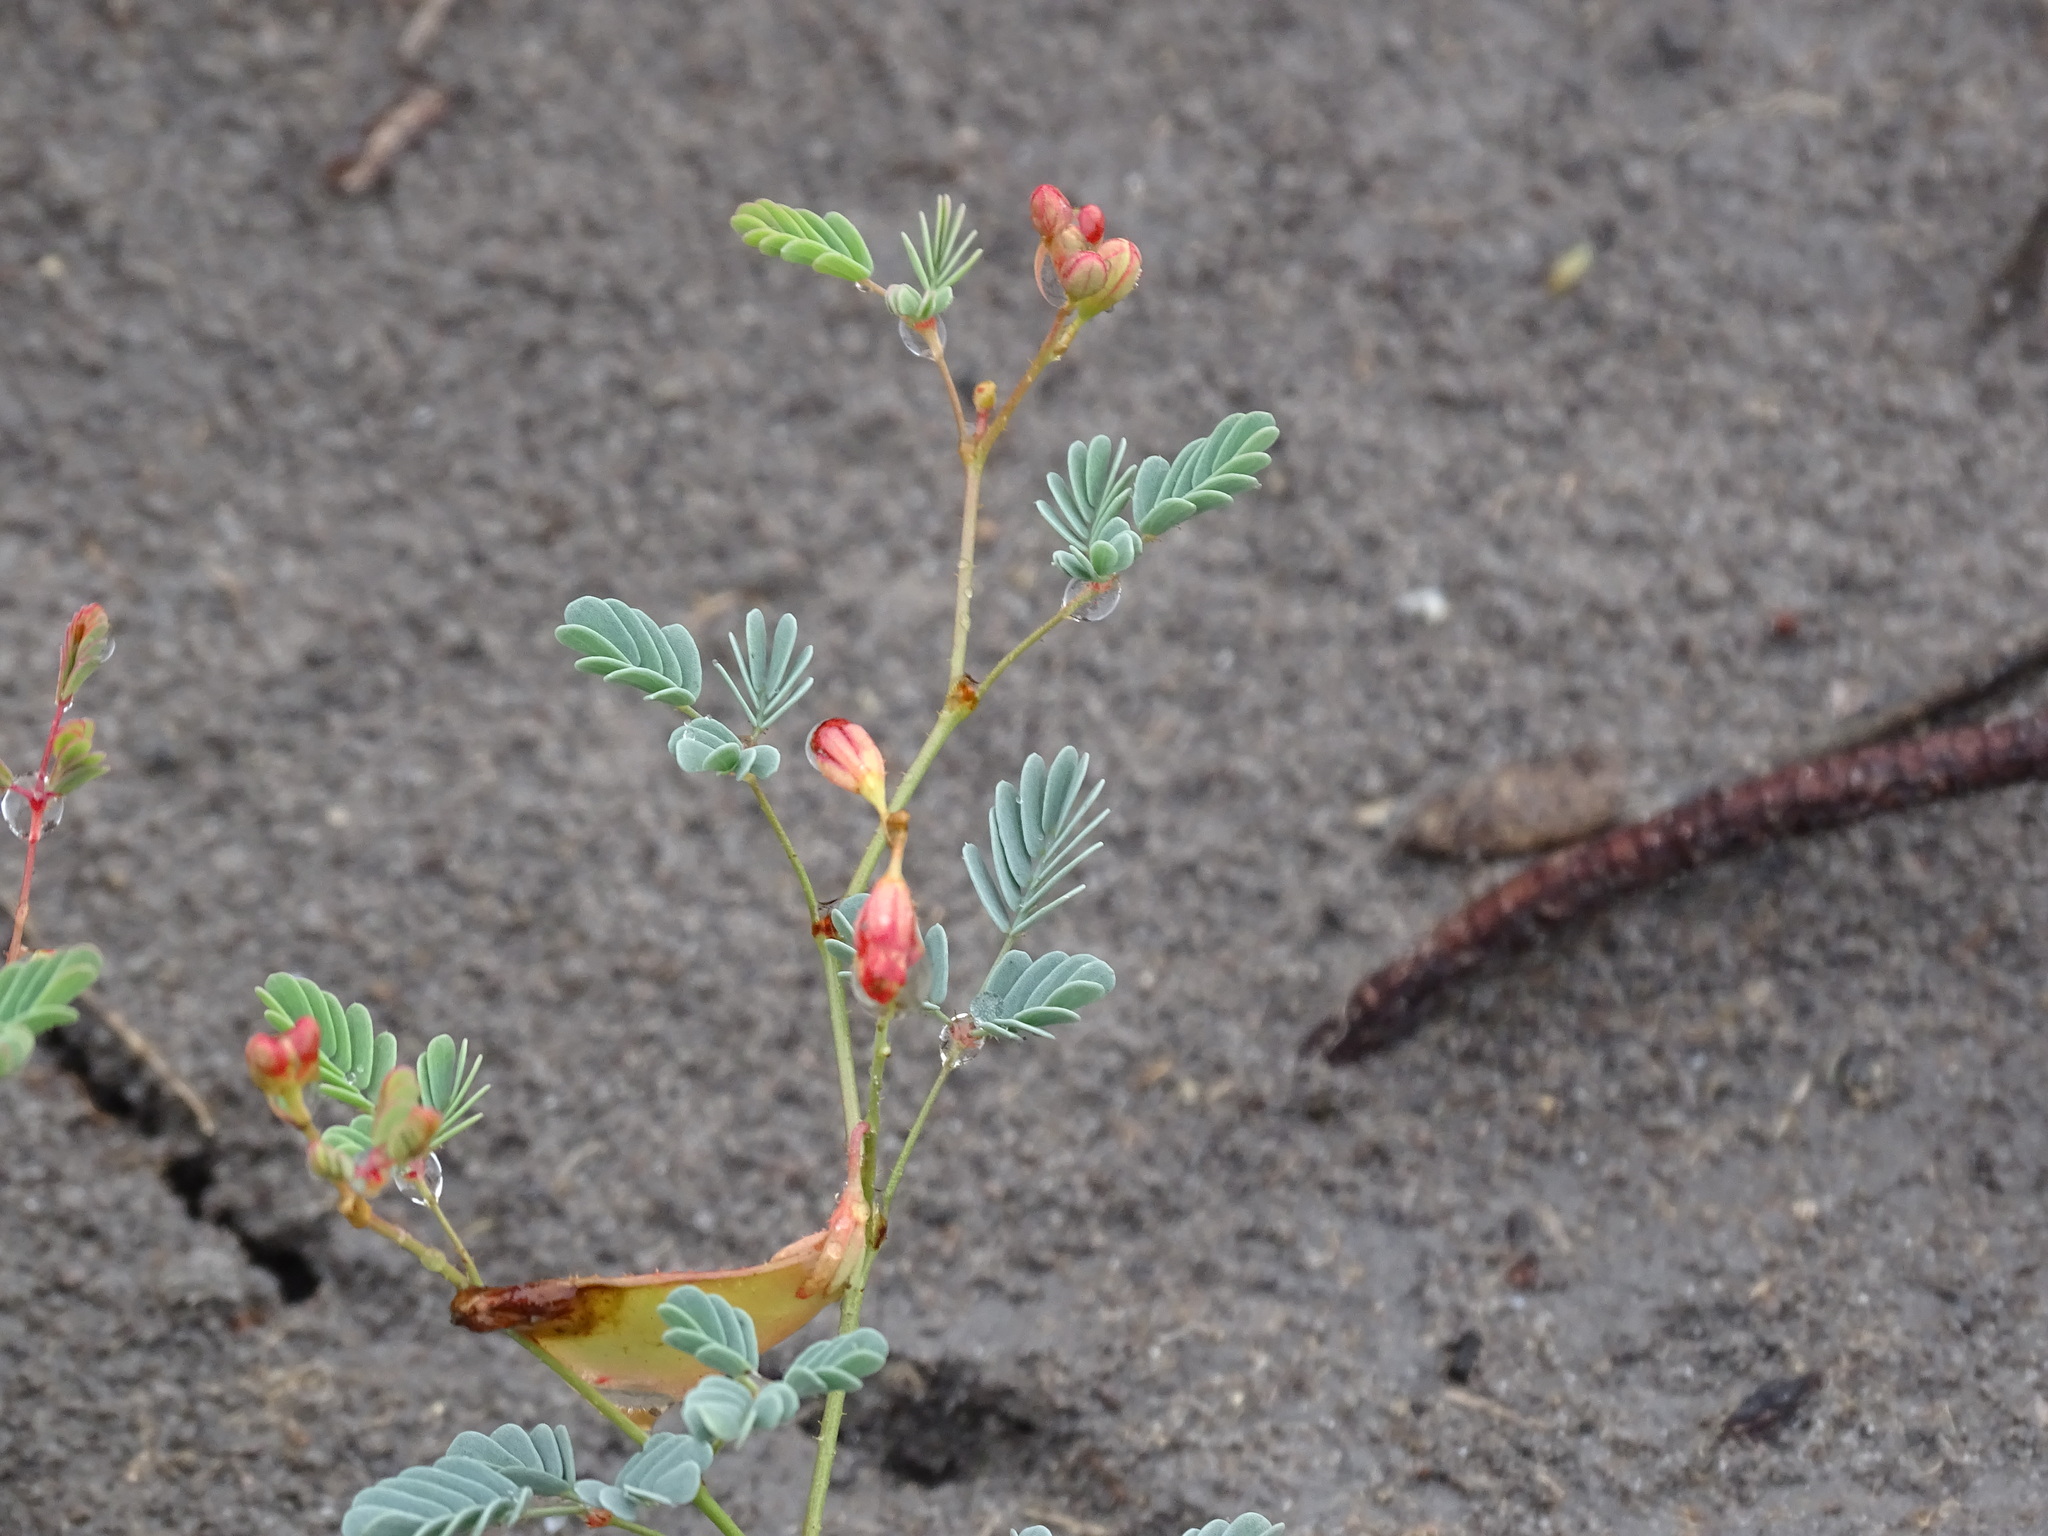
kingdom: Plantae
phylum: Tracheophyta
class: Magnoliopsida
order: Fabales
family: Fabaceae
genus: Hoffmannseggia
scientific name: Hoffmannseggia glauca
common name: Pignut
